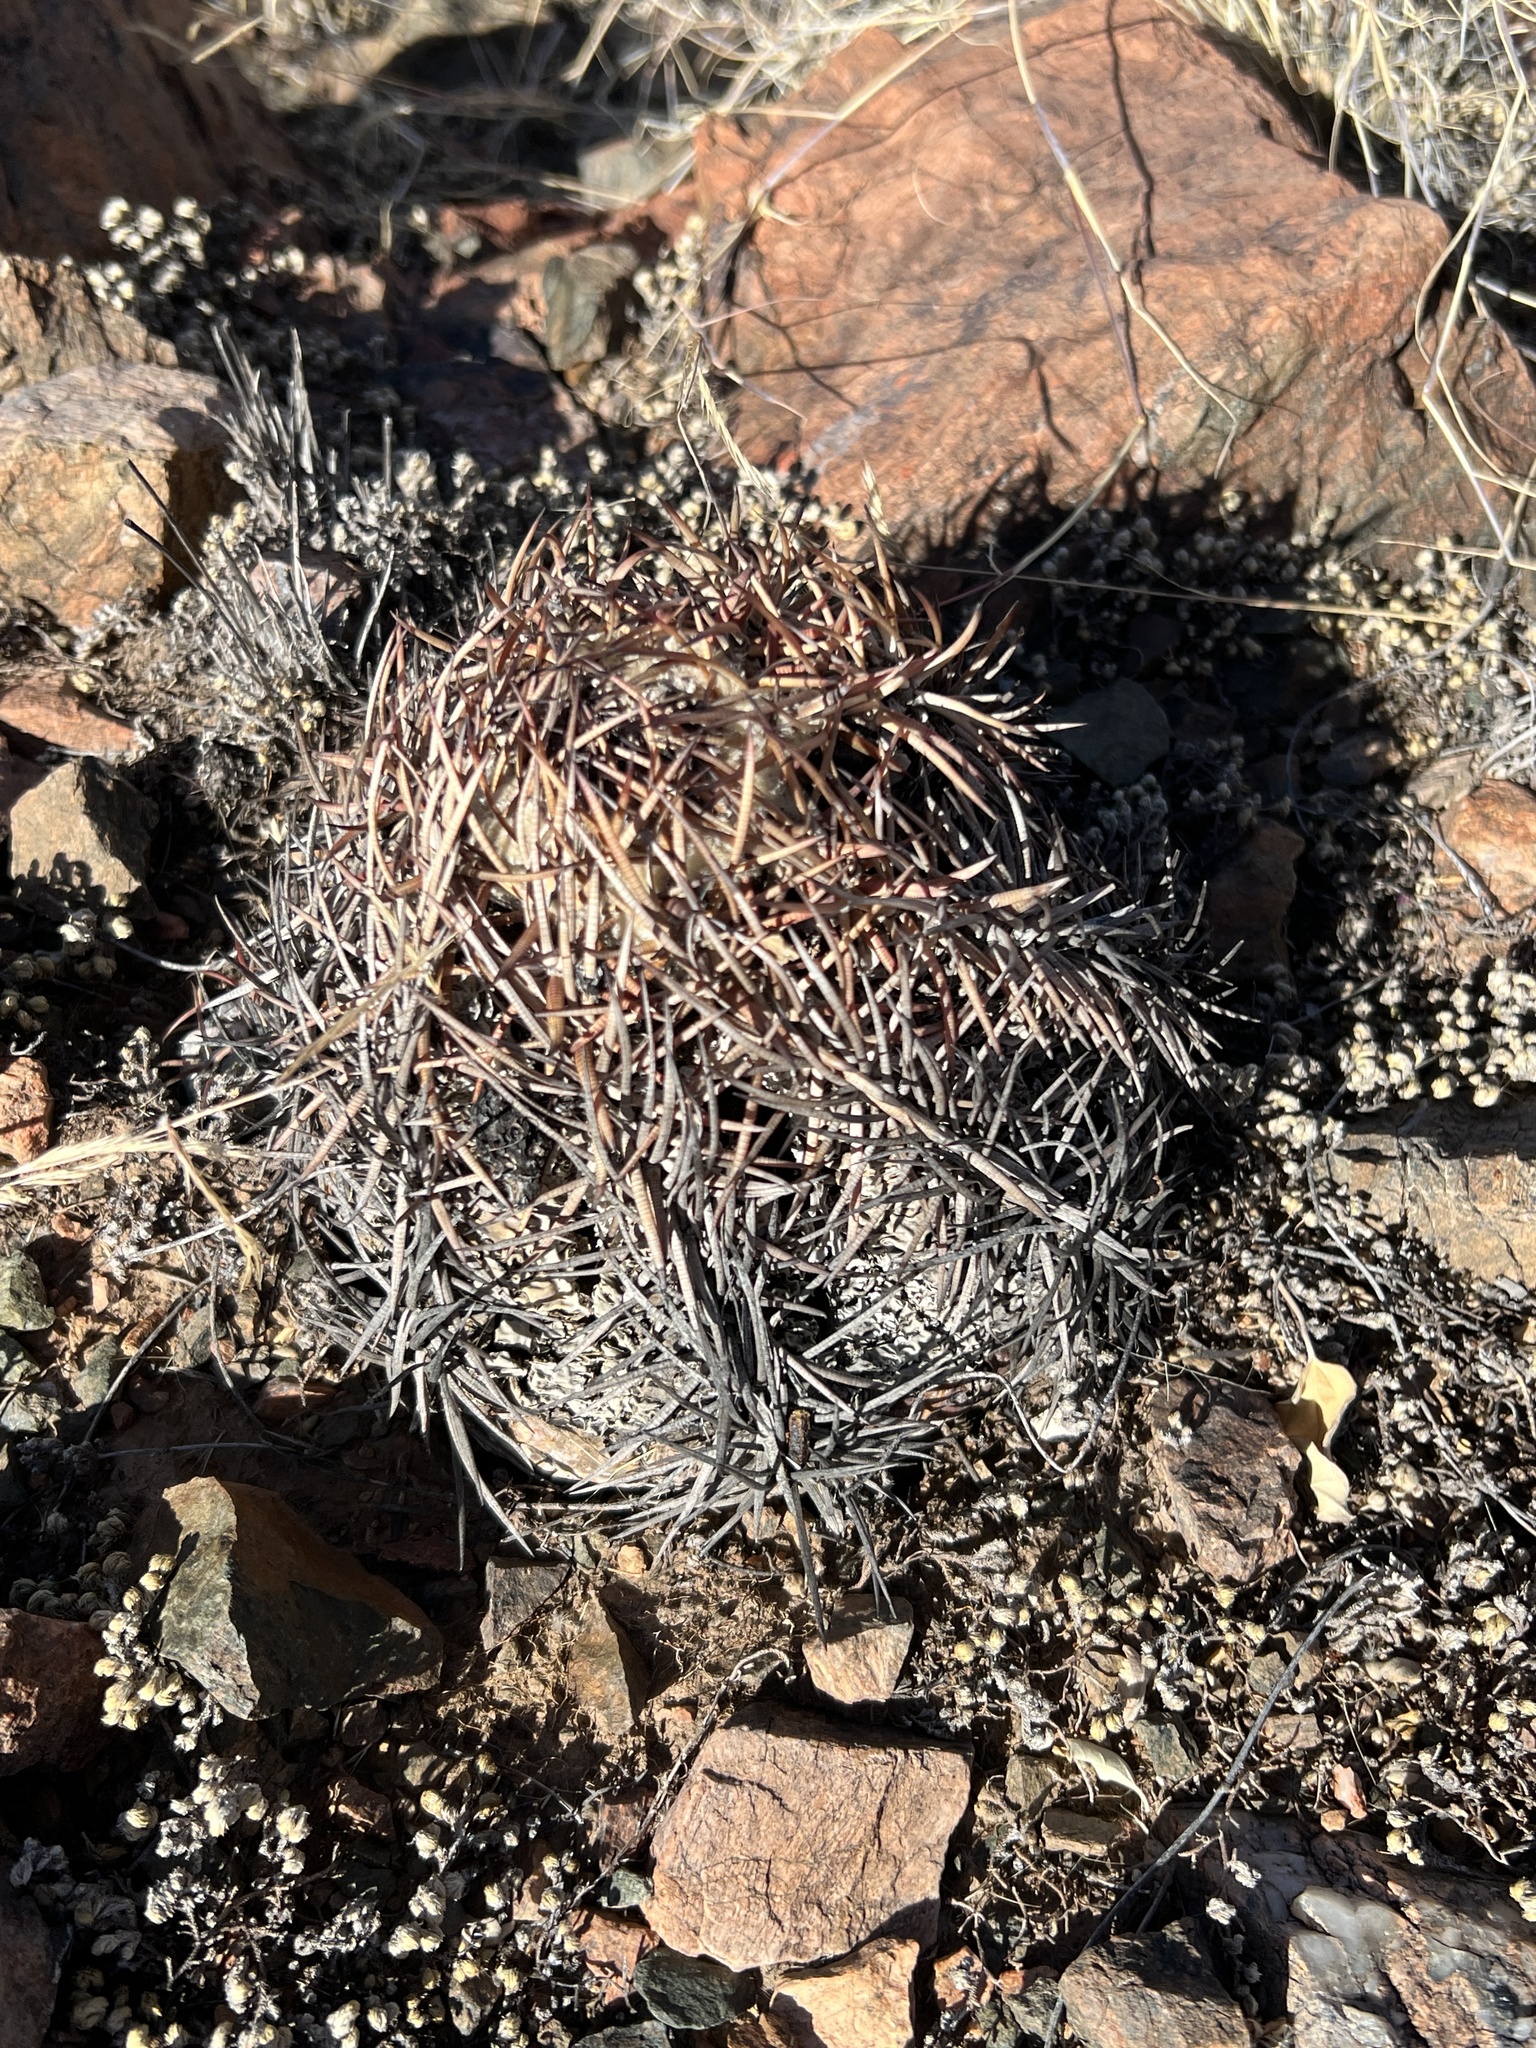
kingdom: Plantae
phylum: Tracheophyta
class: Magnoliopsida
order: Caryophyllales
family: Cactaceae
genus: Echinocactus
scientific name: Echinocactus horizonthalonius
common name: Devilshead
